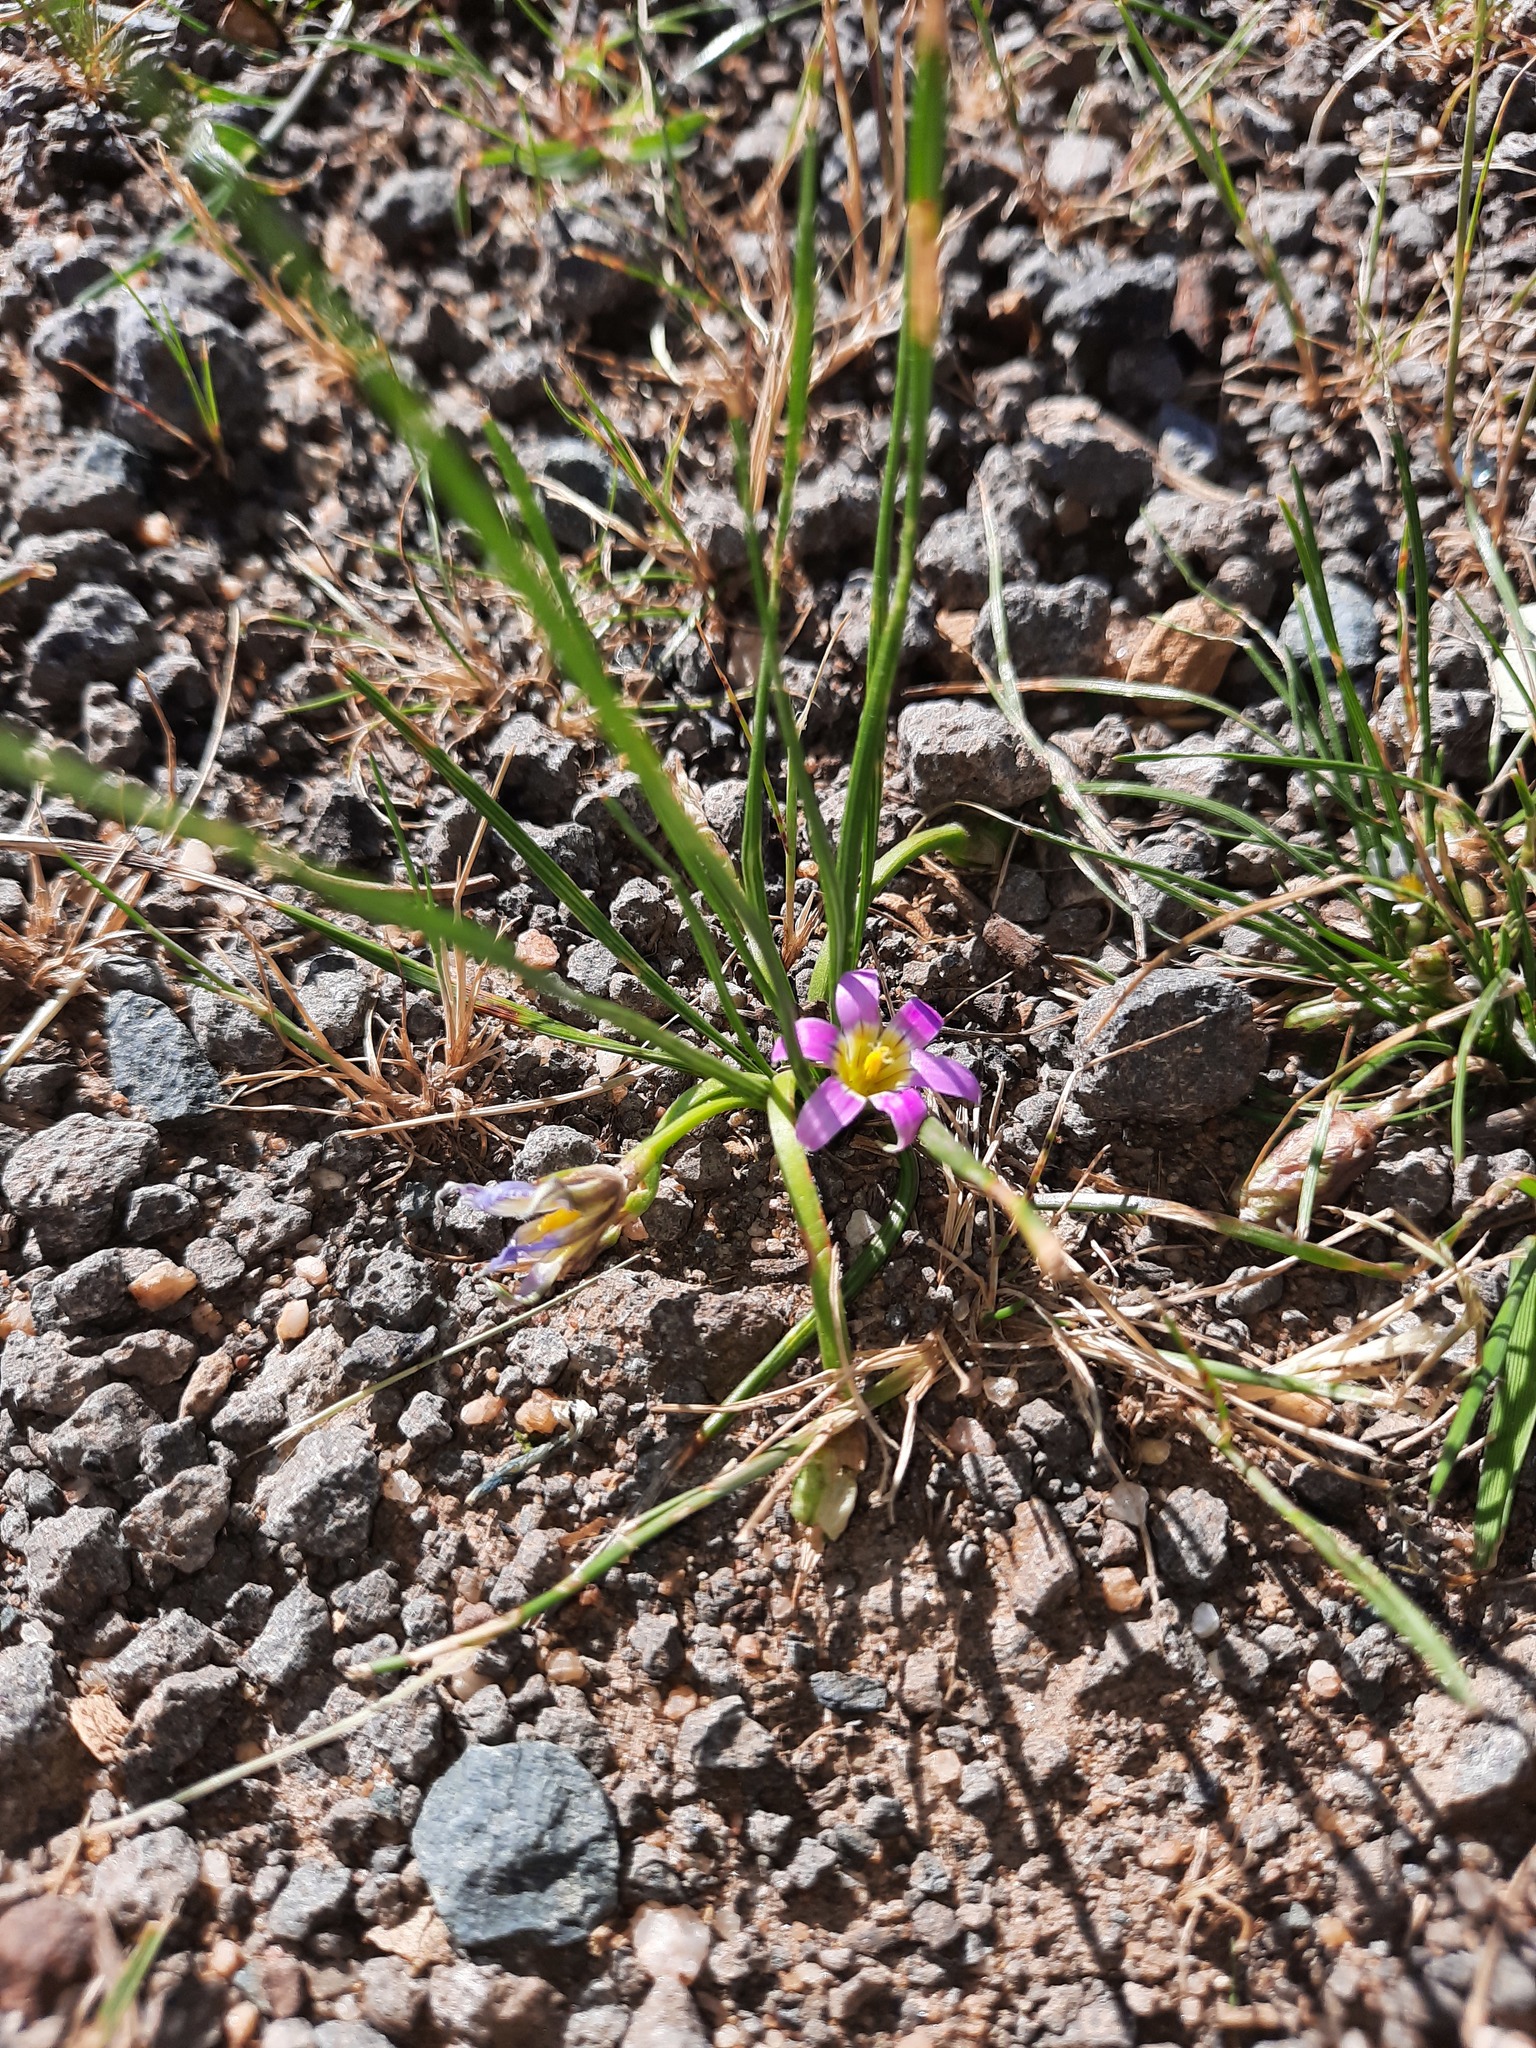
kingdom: Plantae
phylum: Tracheophyta
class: Liliopsida
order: Asparagales
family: Iridaceae
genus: Romulea
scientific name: Romulea rosea
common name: Oniongrass
